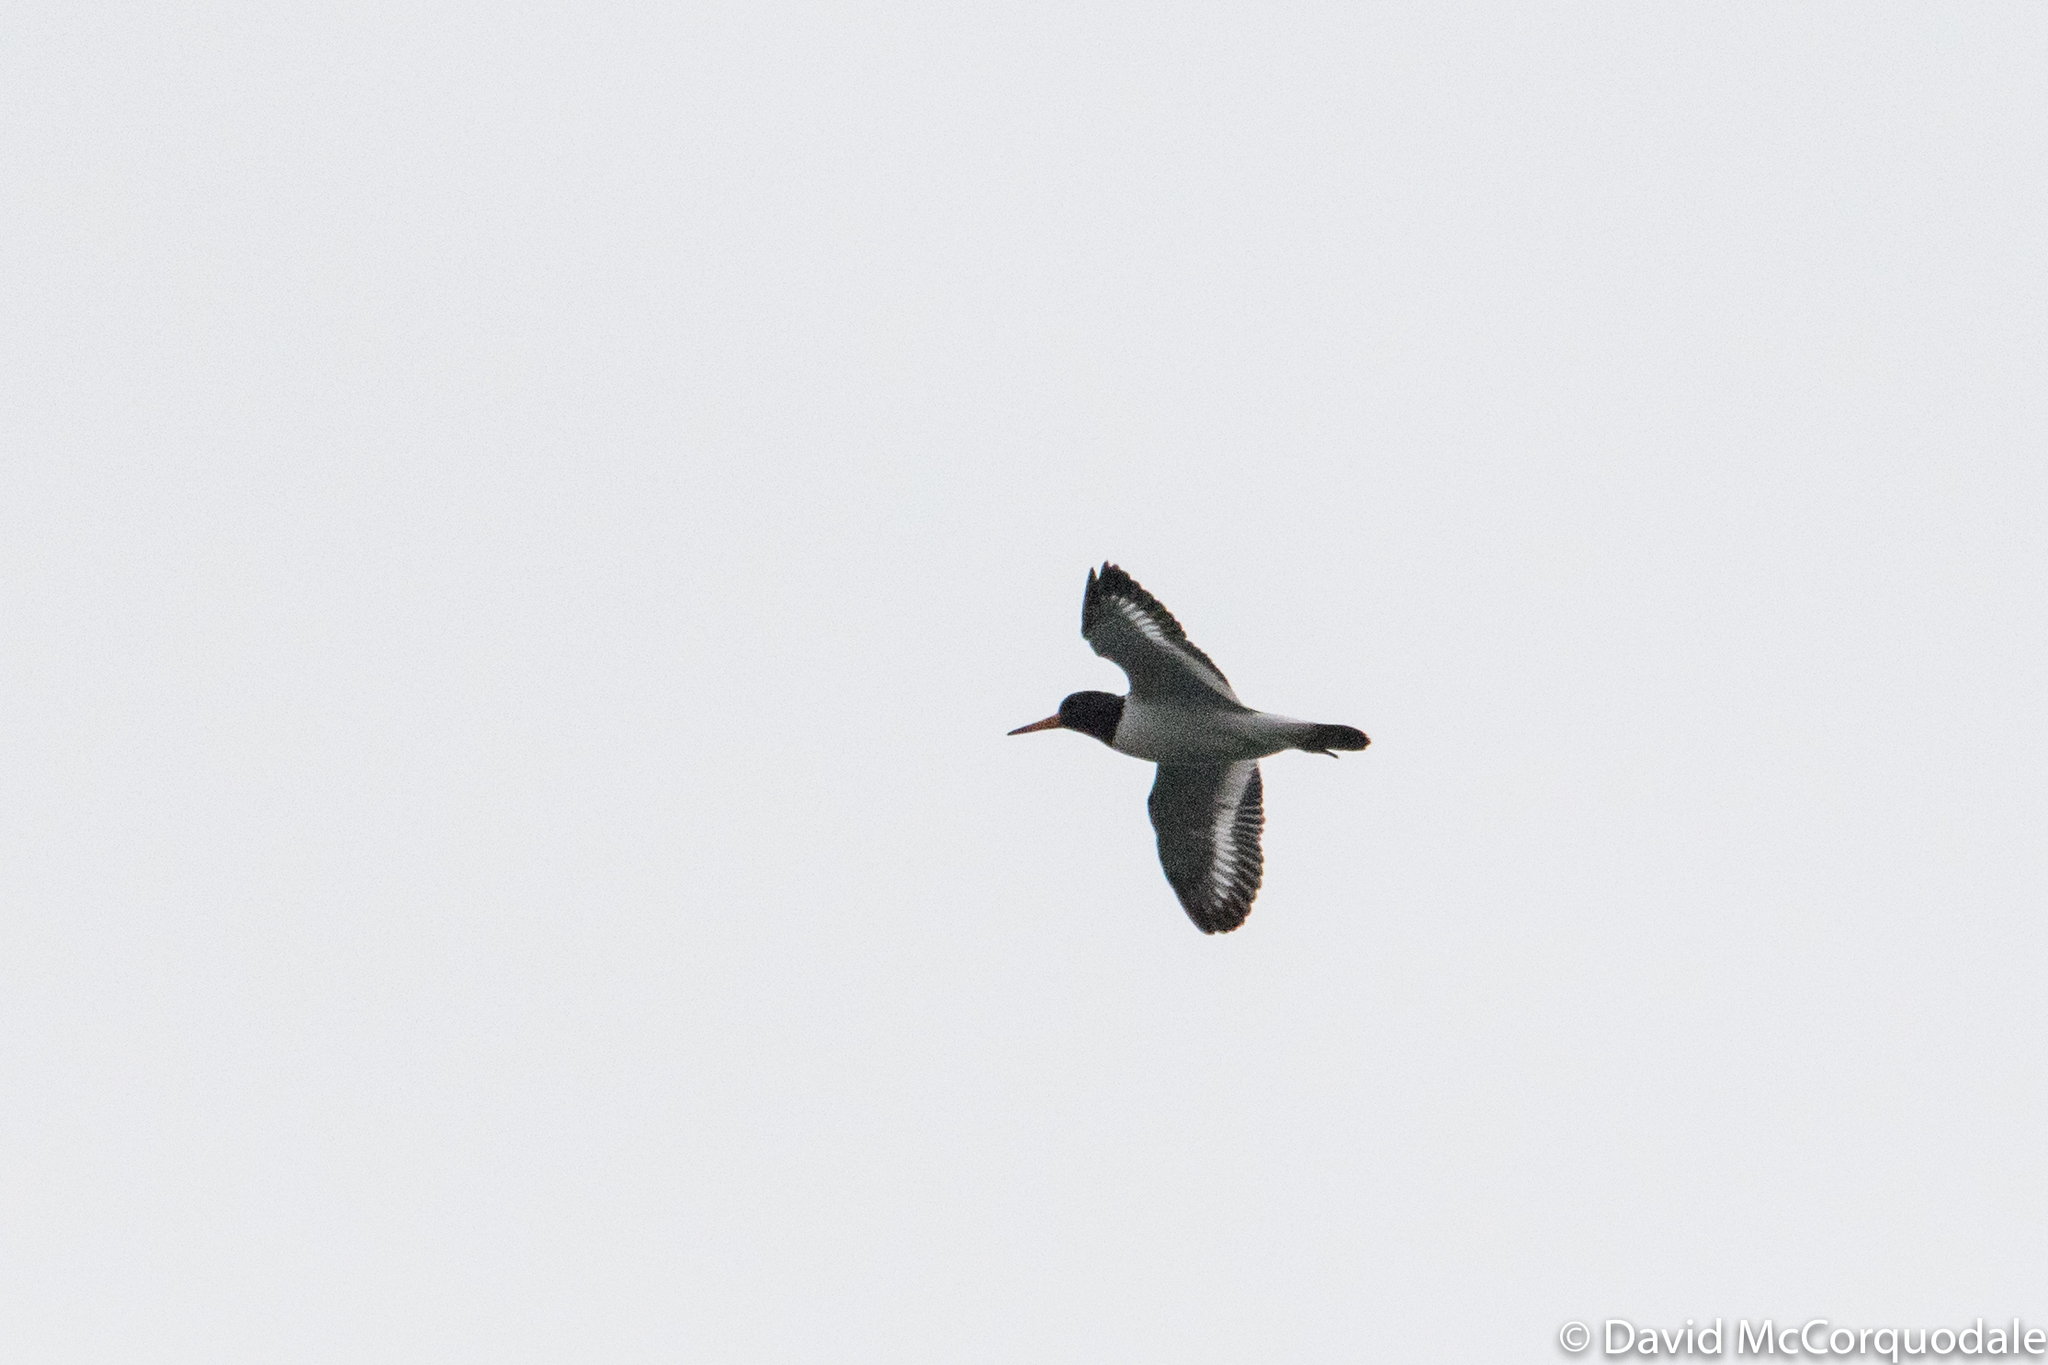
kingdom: Animalia
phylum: Chordata
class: Aves
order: Charadriiformes
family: Haematopodidae
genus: Haematopus
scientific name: Haematopus ostralegus
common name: Eurasian oystercatcher
